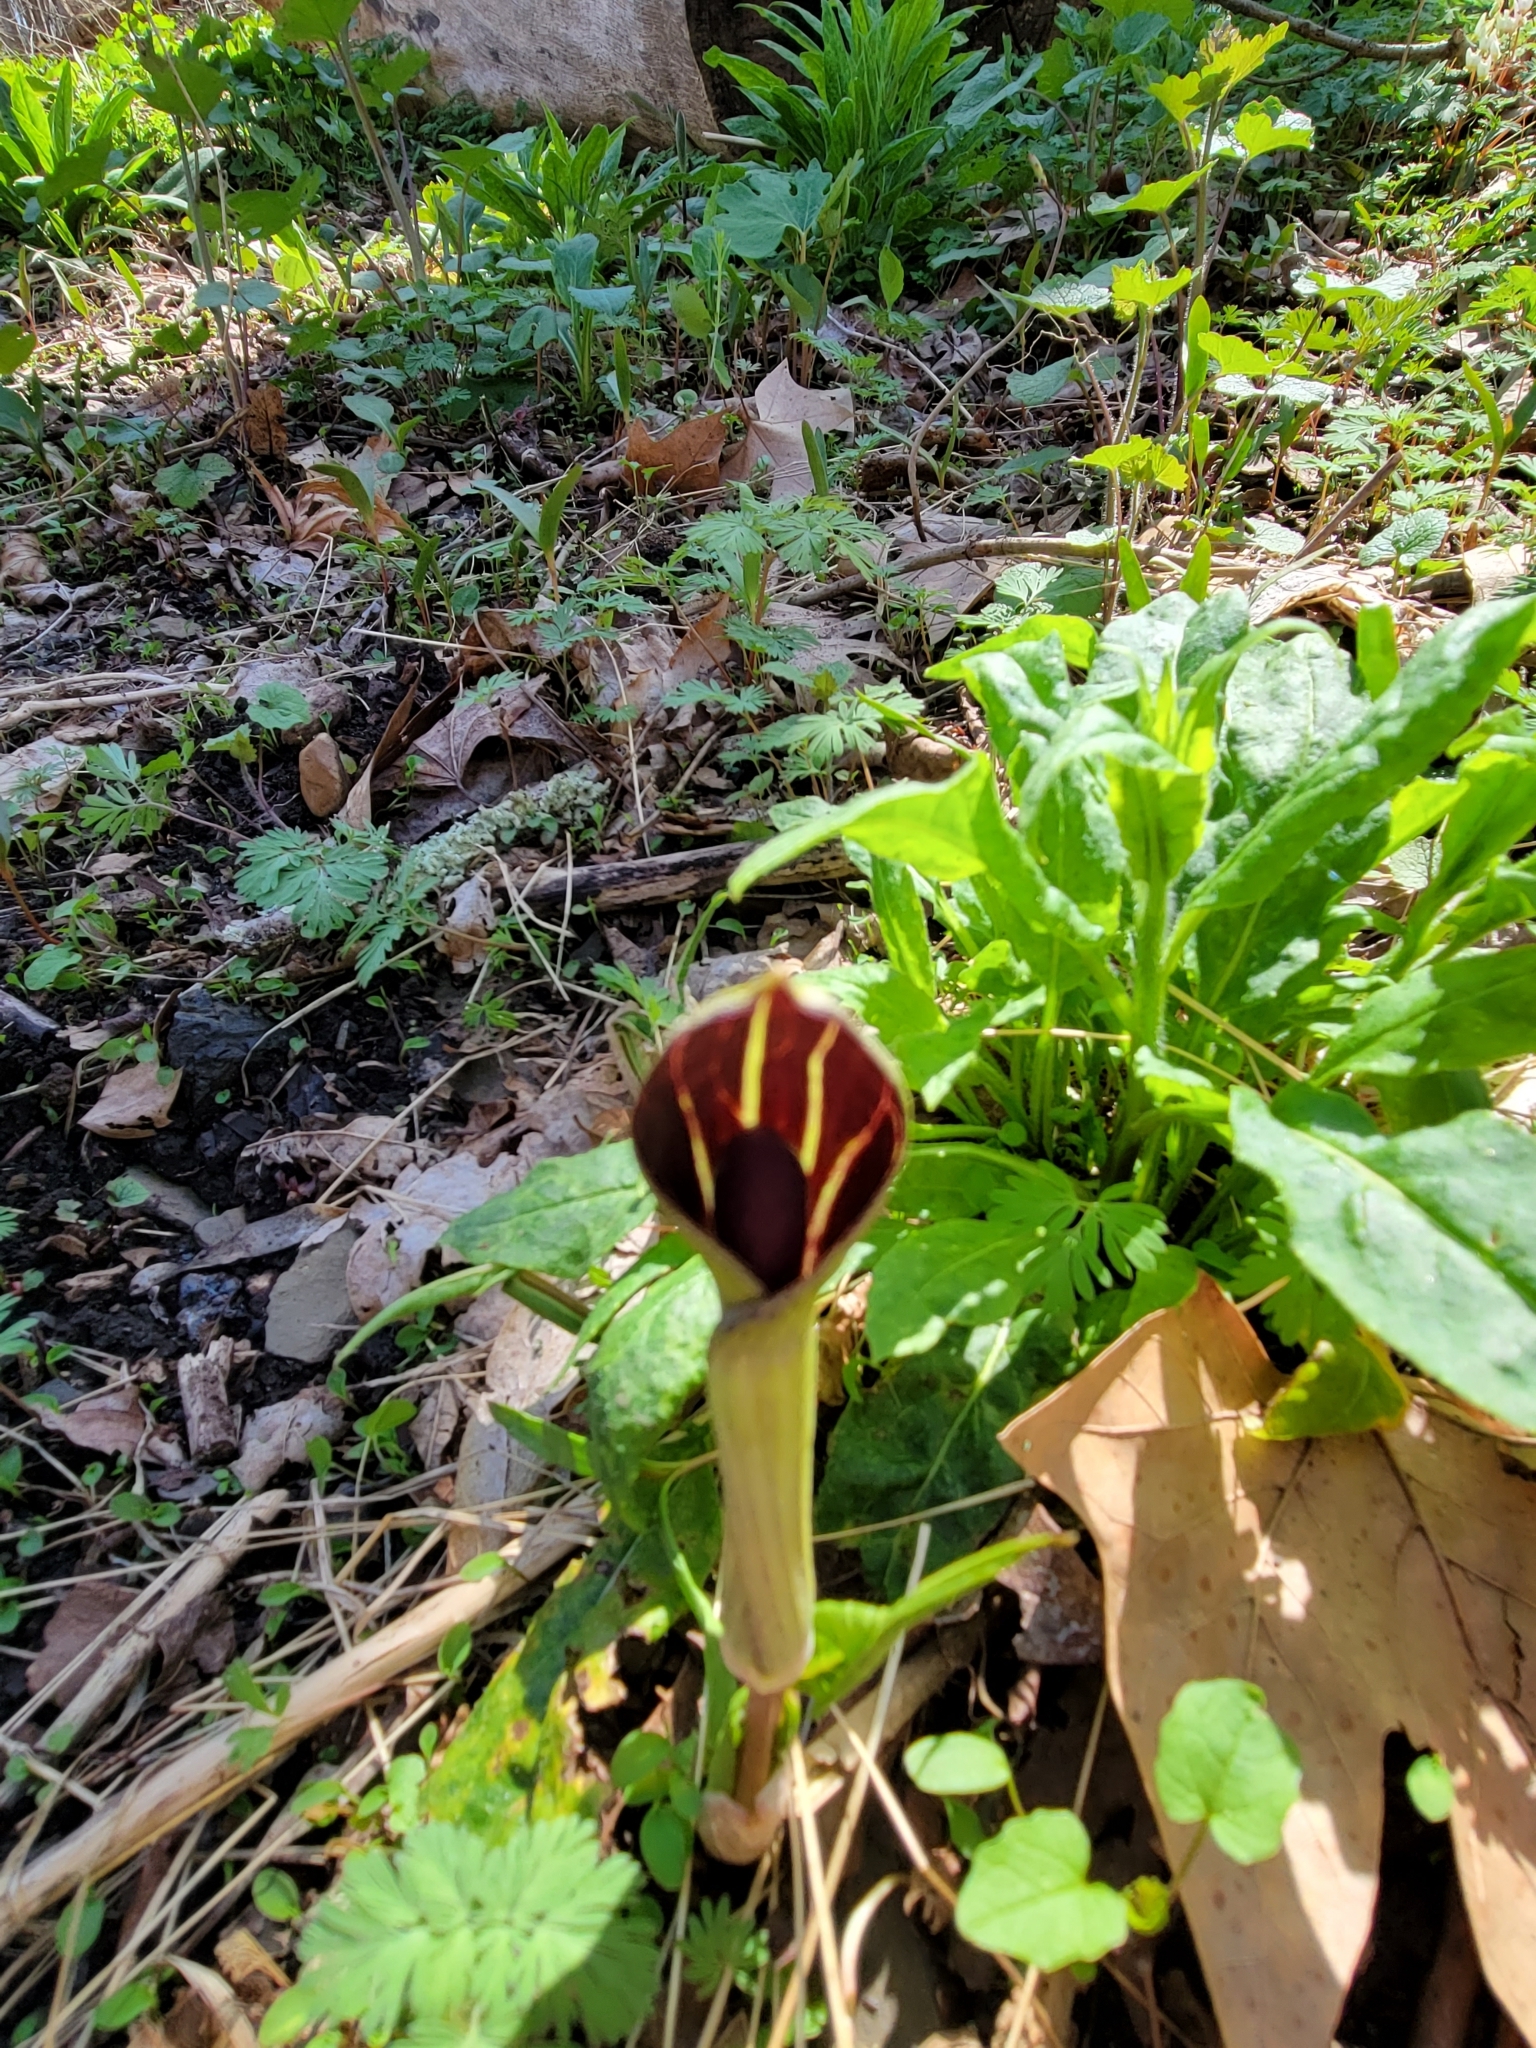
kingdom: Plantae
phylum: Tracheophyta
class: Liliopsida
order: Alismatales
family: Araceae
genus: Arisaema
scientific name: Arisaema triphyllum
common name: Jack-in-the-pulpit
